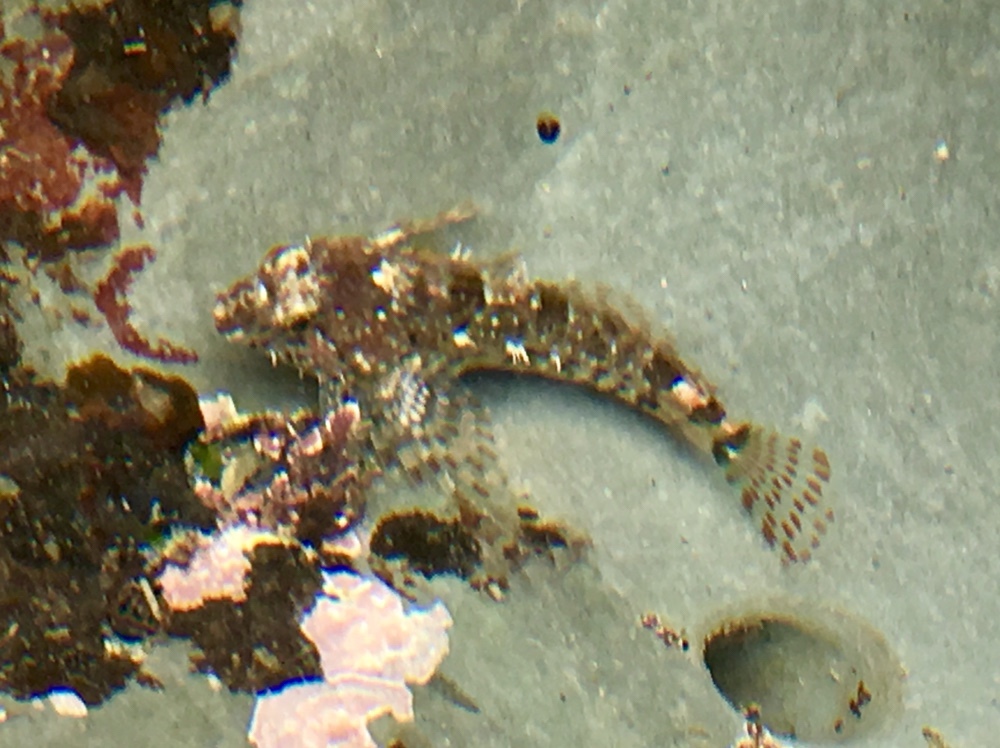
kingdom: Animalia
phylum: Chordata
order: Scorpaeniformes
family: Cottidae
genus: Clinocottus
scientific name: Clinocottus analis
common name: Woolly sculpin
